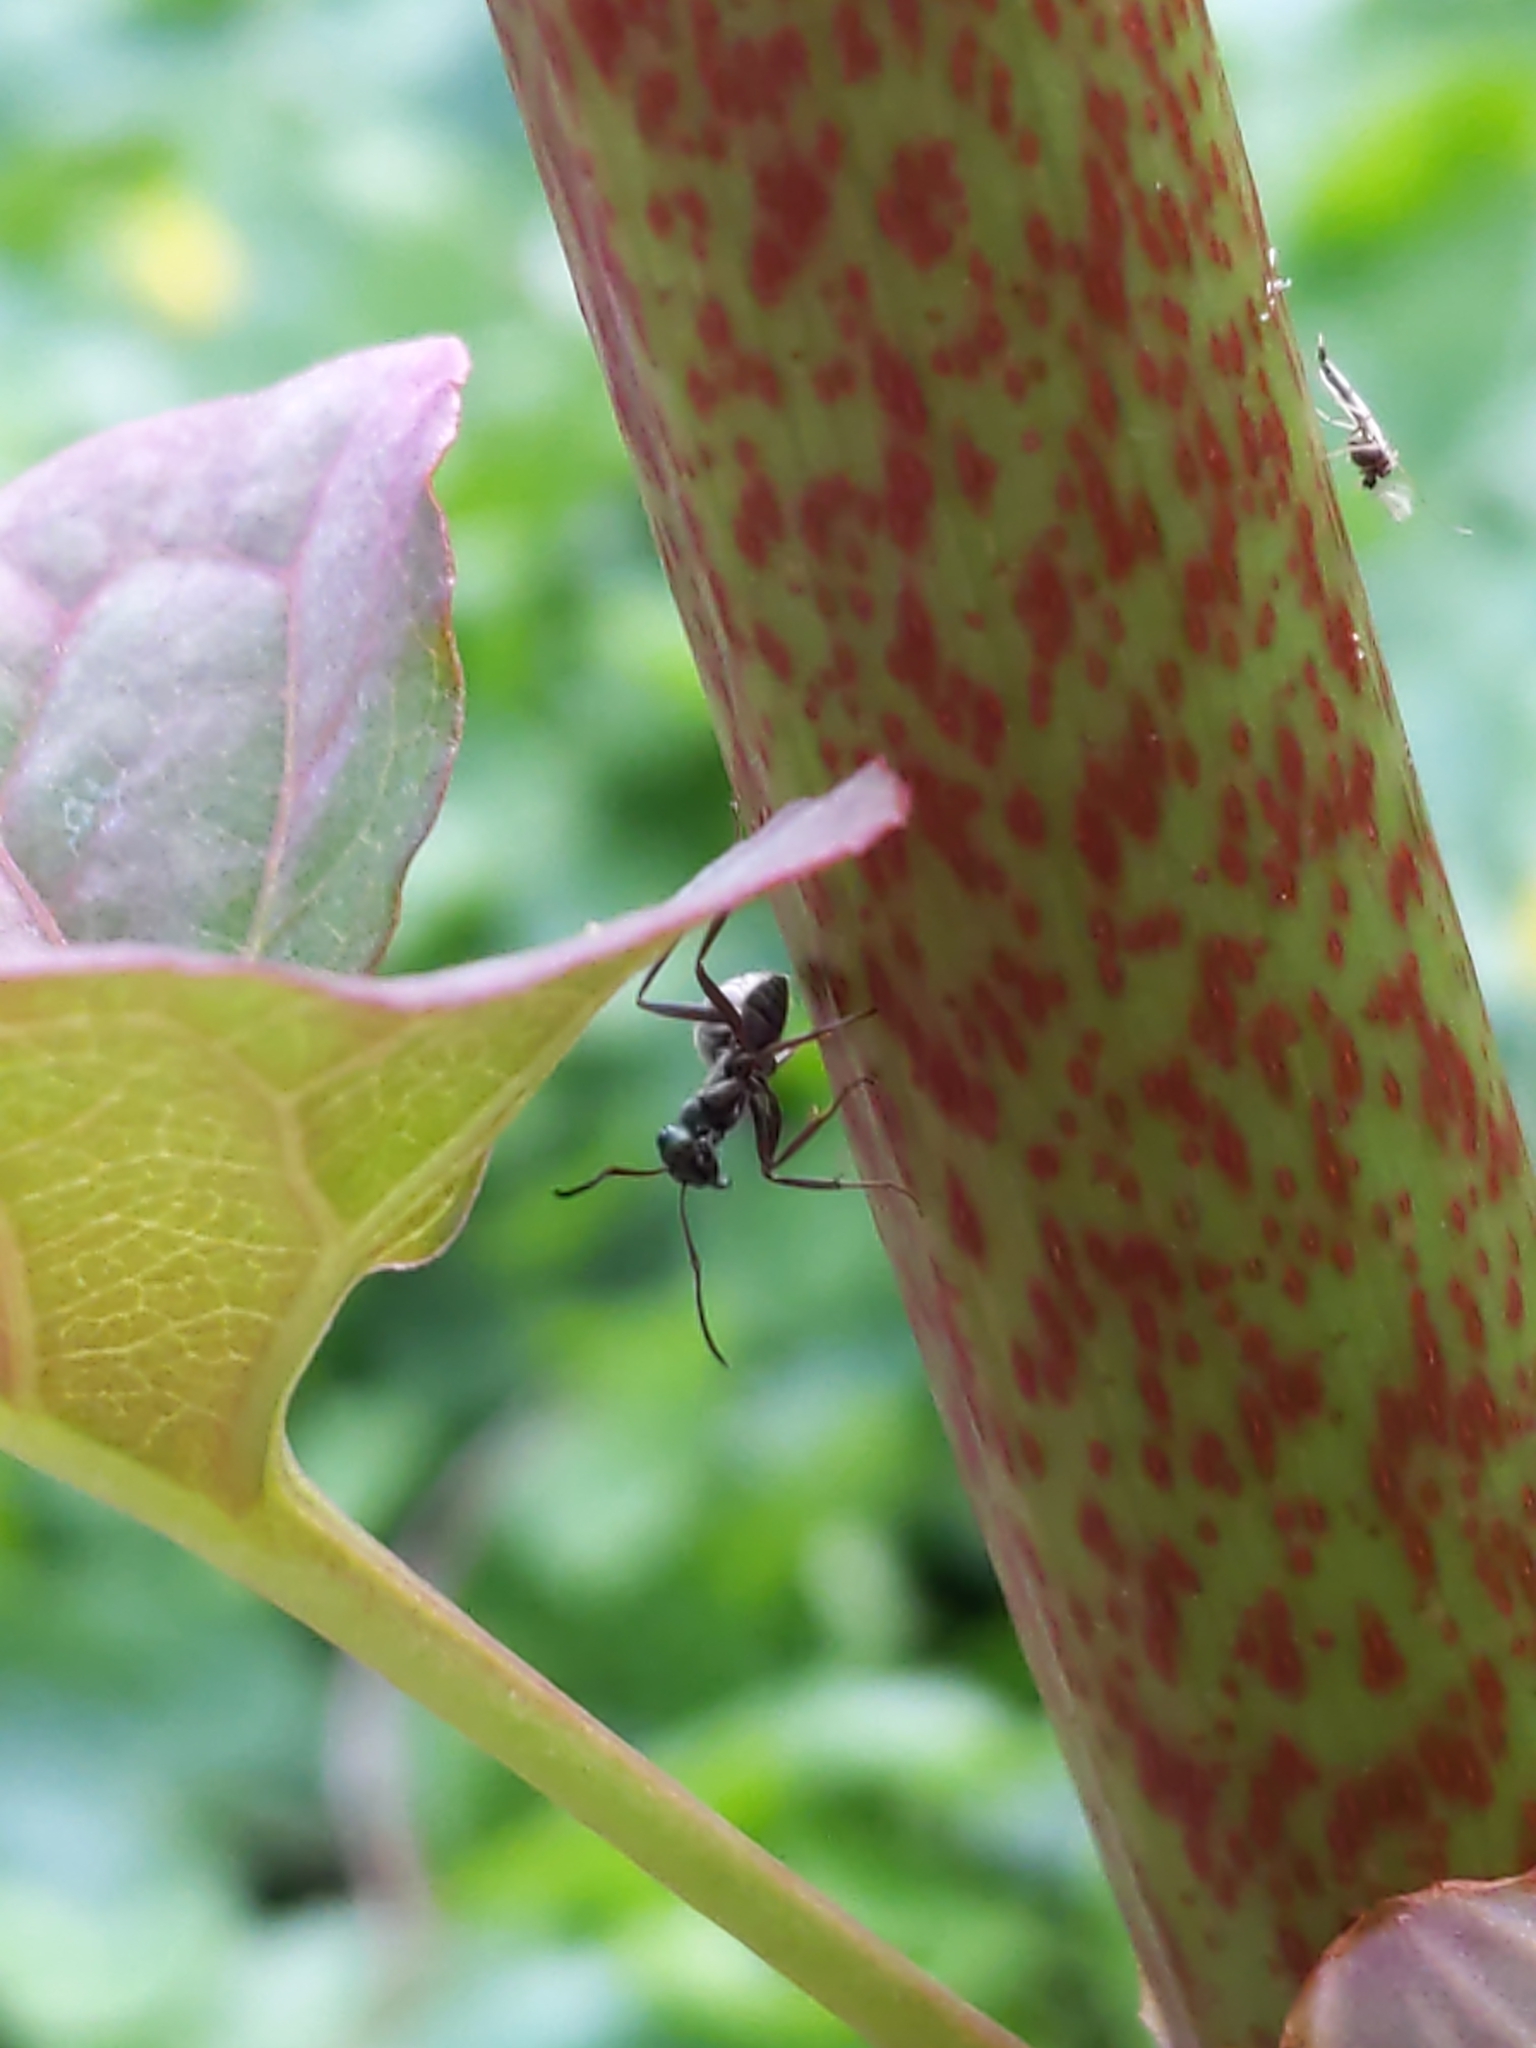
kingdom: Animalia
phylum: Arthropoda
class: Insecta
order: Hymenoptera
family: Formicidae
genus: Formica
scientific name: Formica
